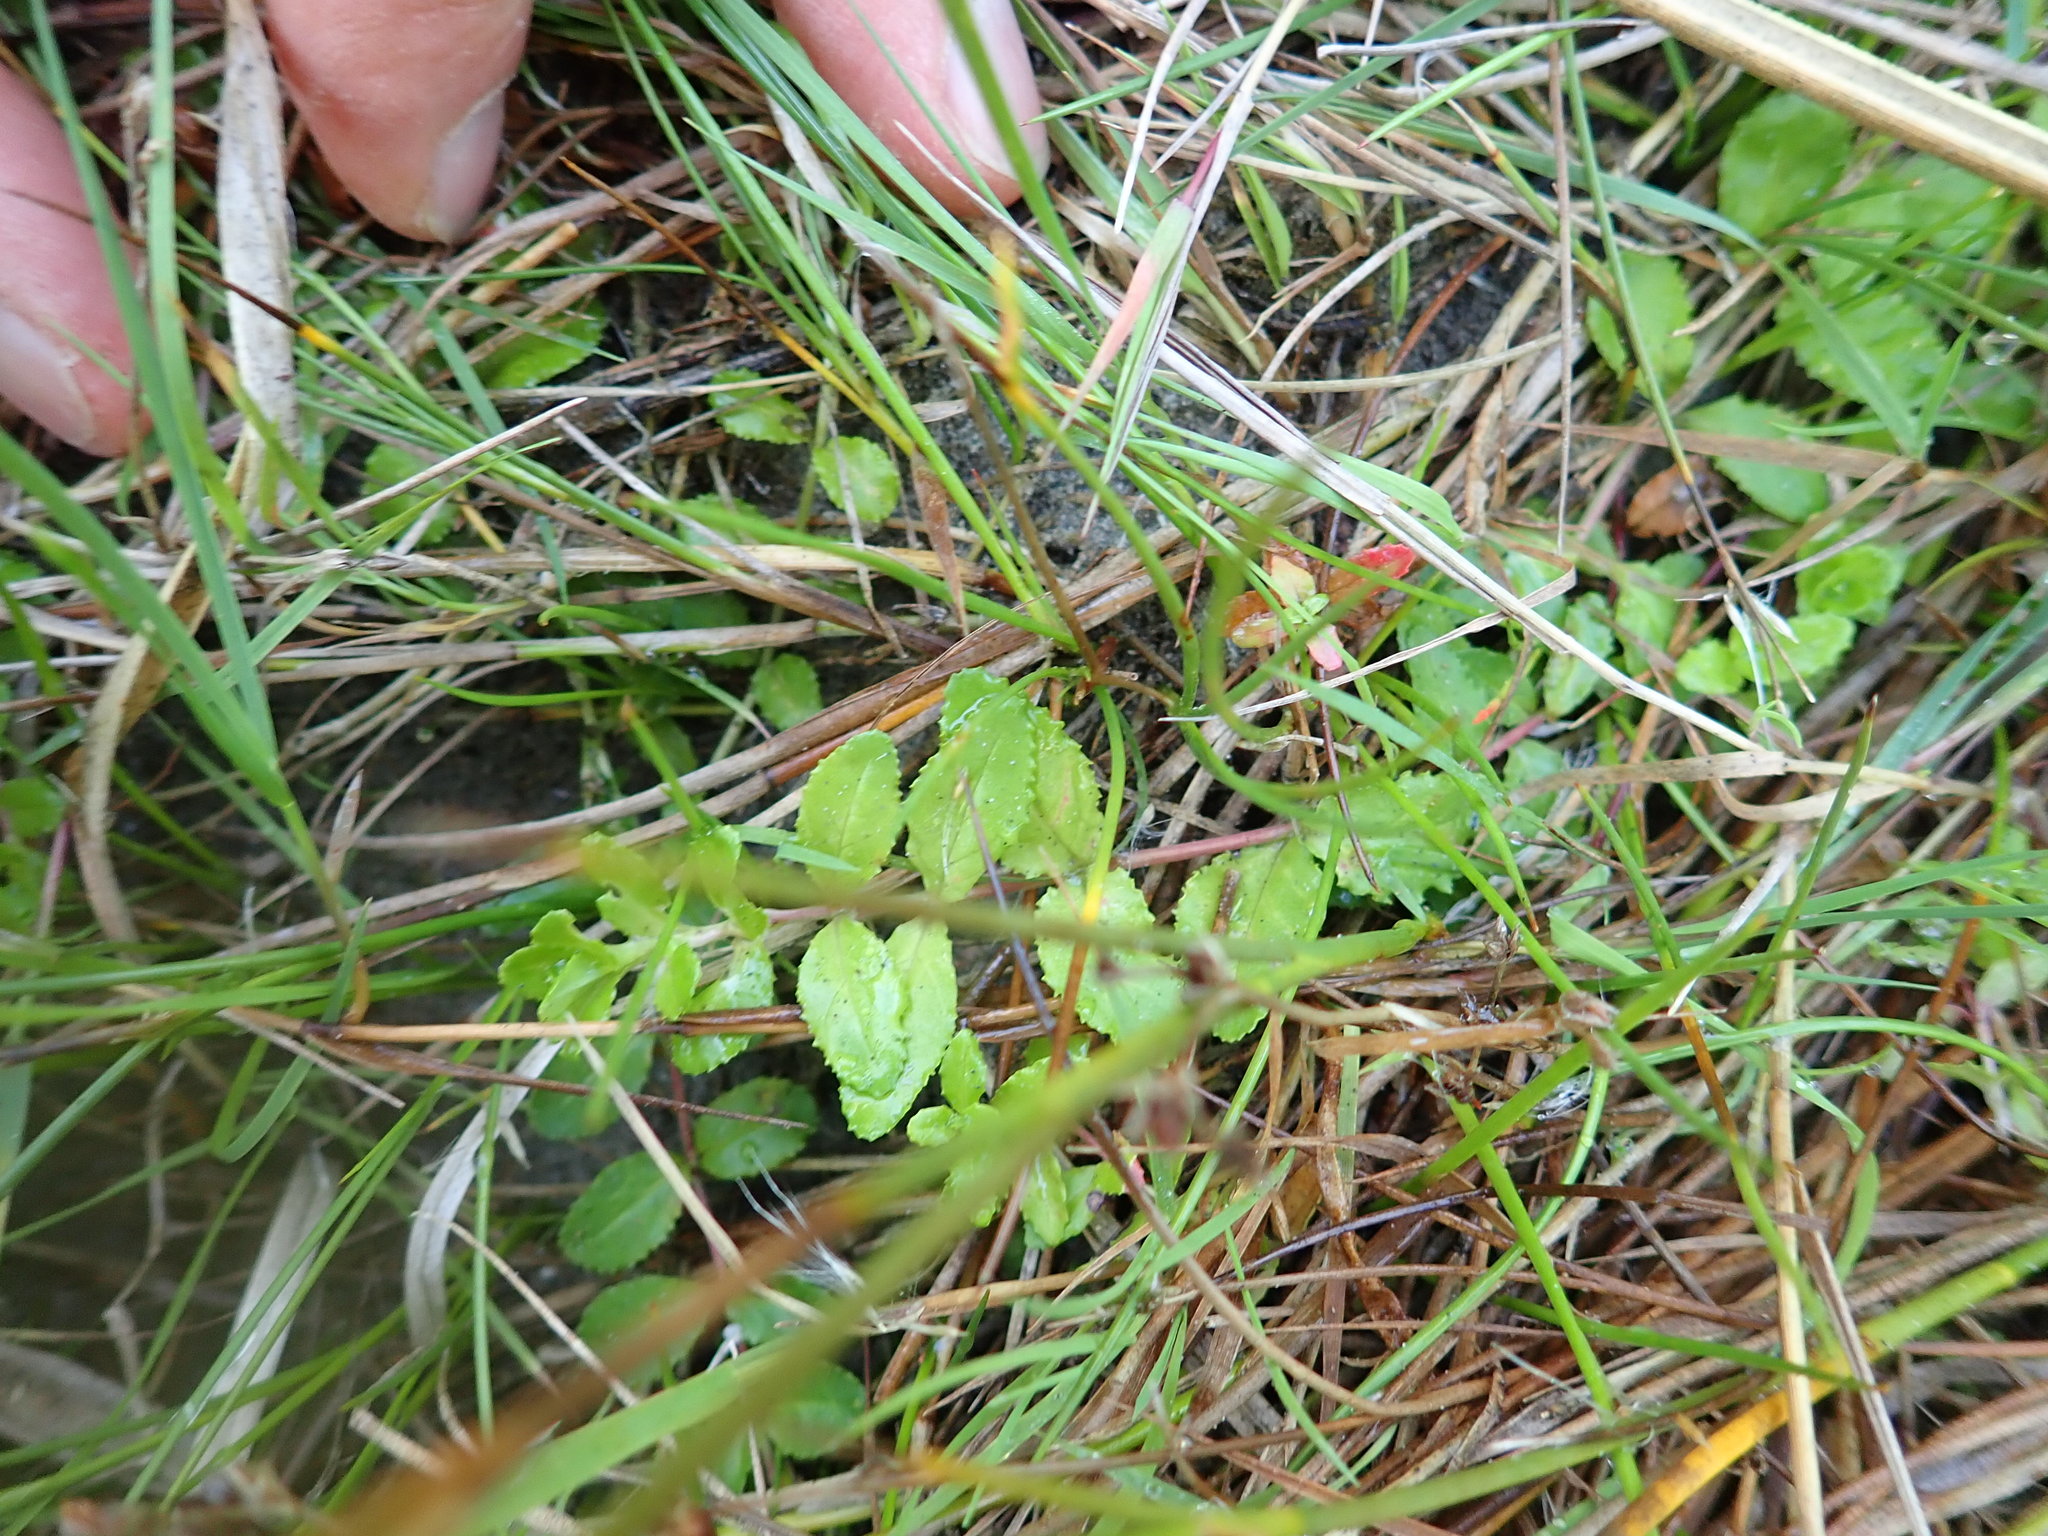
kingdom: Plantae
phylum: Tracheophyta
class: Magnoliopsida
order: Myrtales
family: Onagraceae
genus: Epilobium
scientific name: Epilobium billardiereanum
